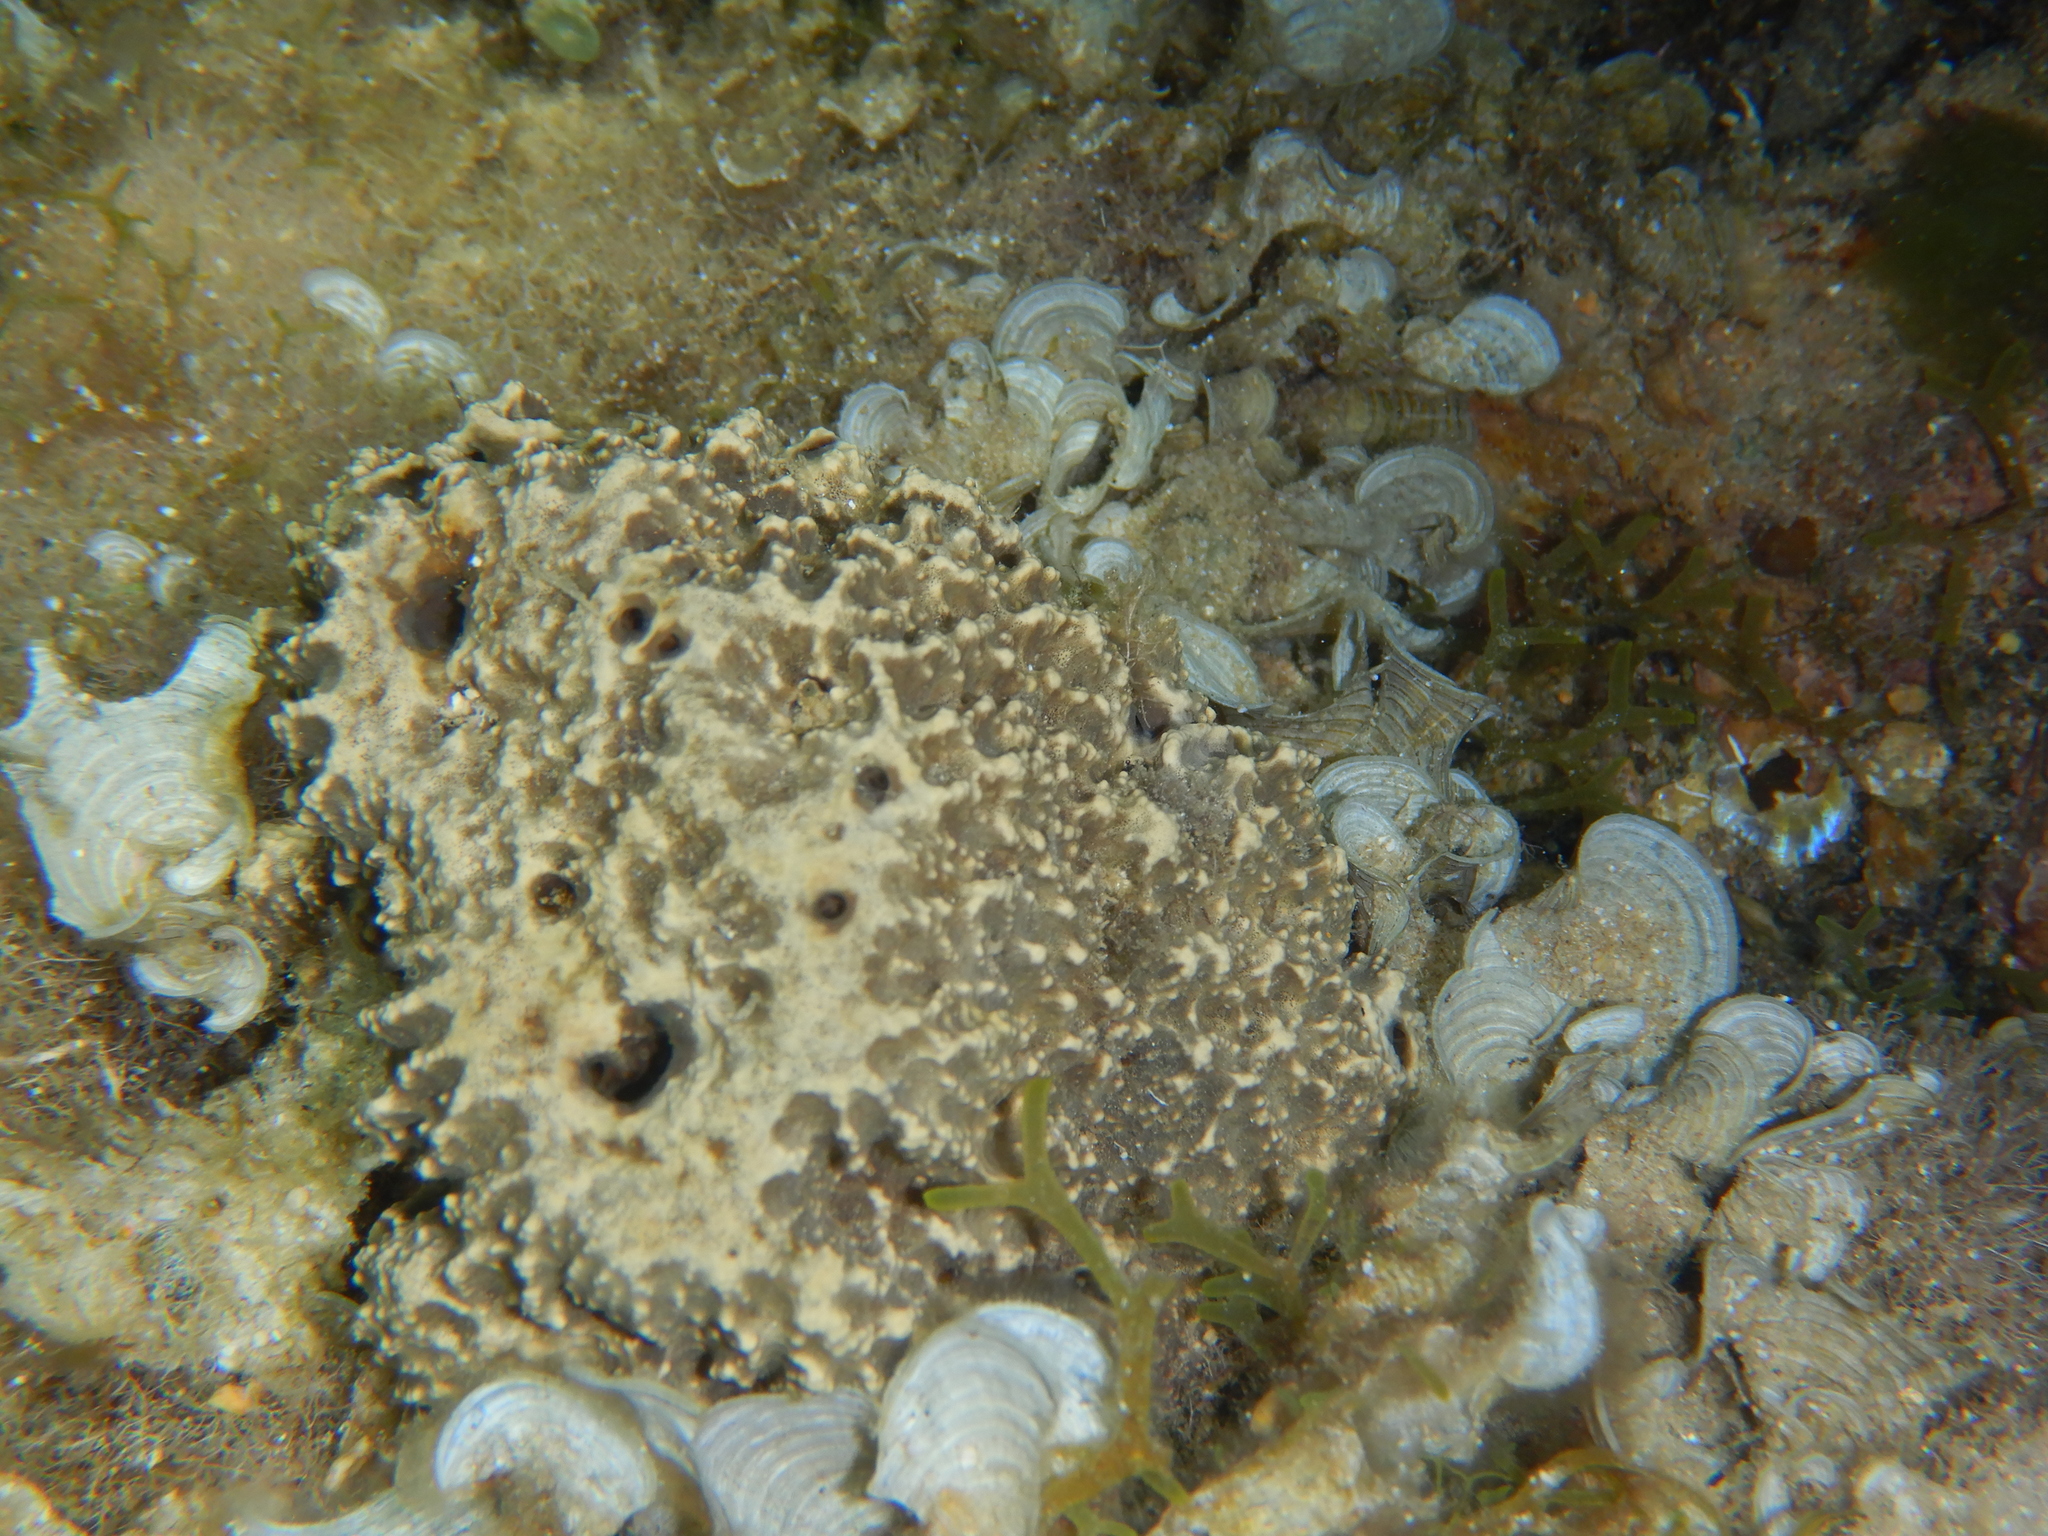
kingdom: Animalia
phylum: Porifera
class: Demospongiae
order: Dictyoceratida
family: Irciniidae
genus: Sarcotragus
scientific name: Sarcotragus fasciculatus
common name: Stinker sponge
